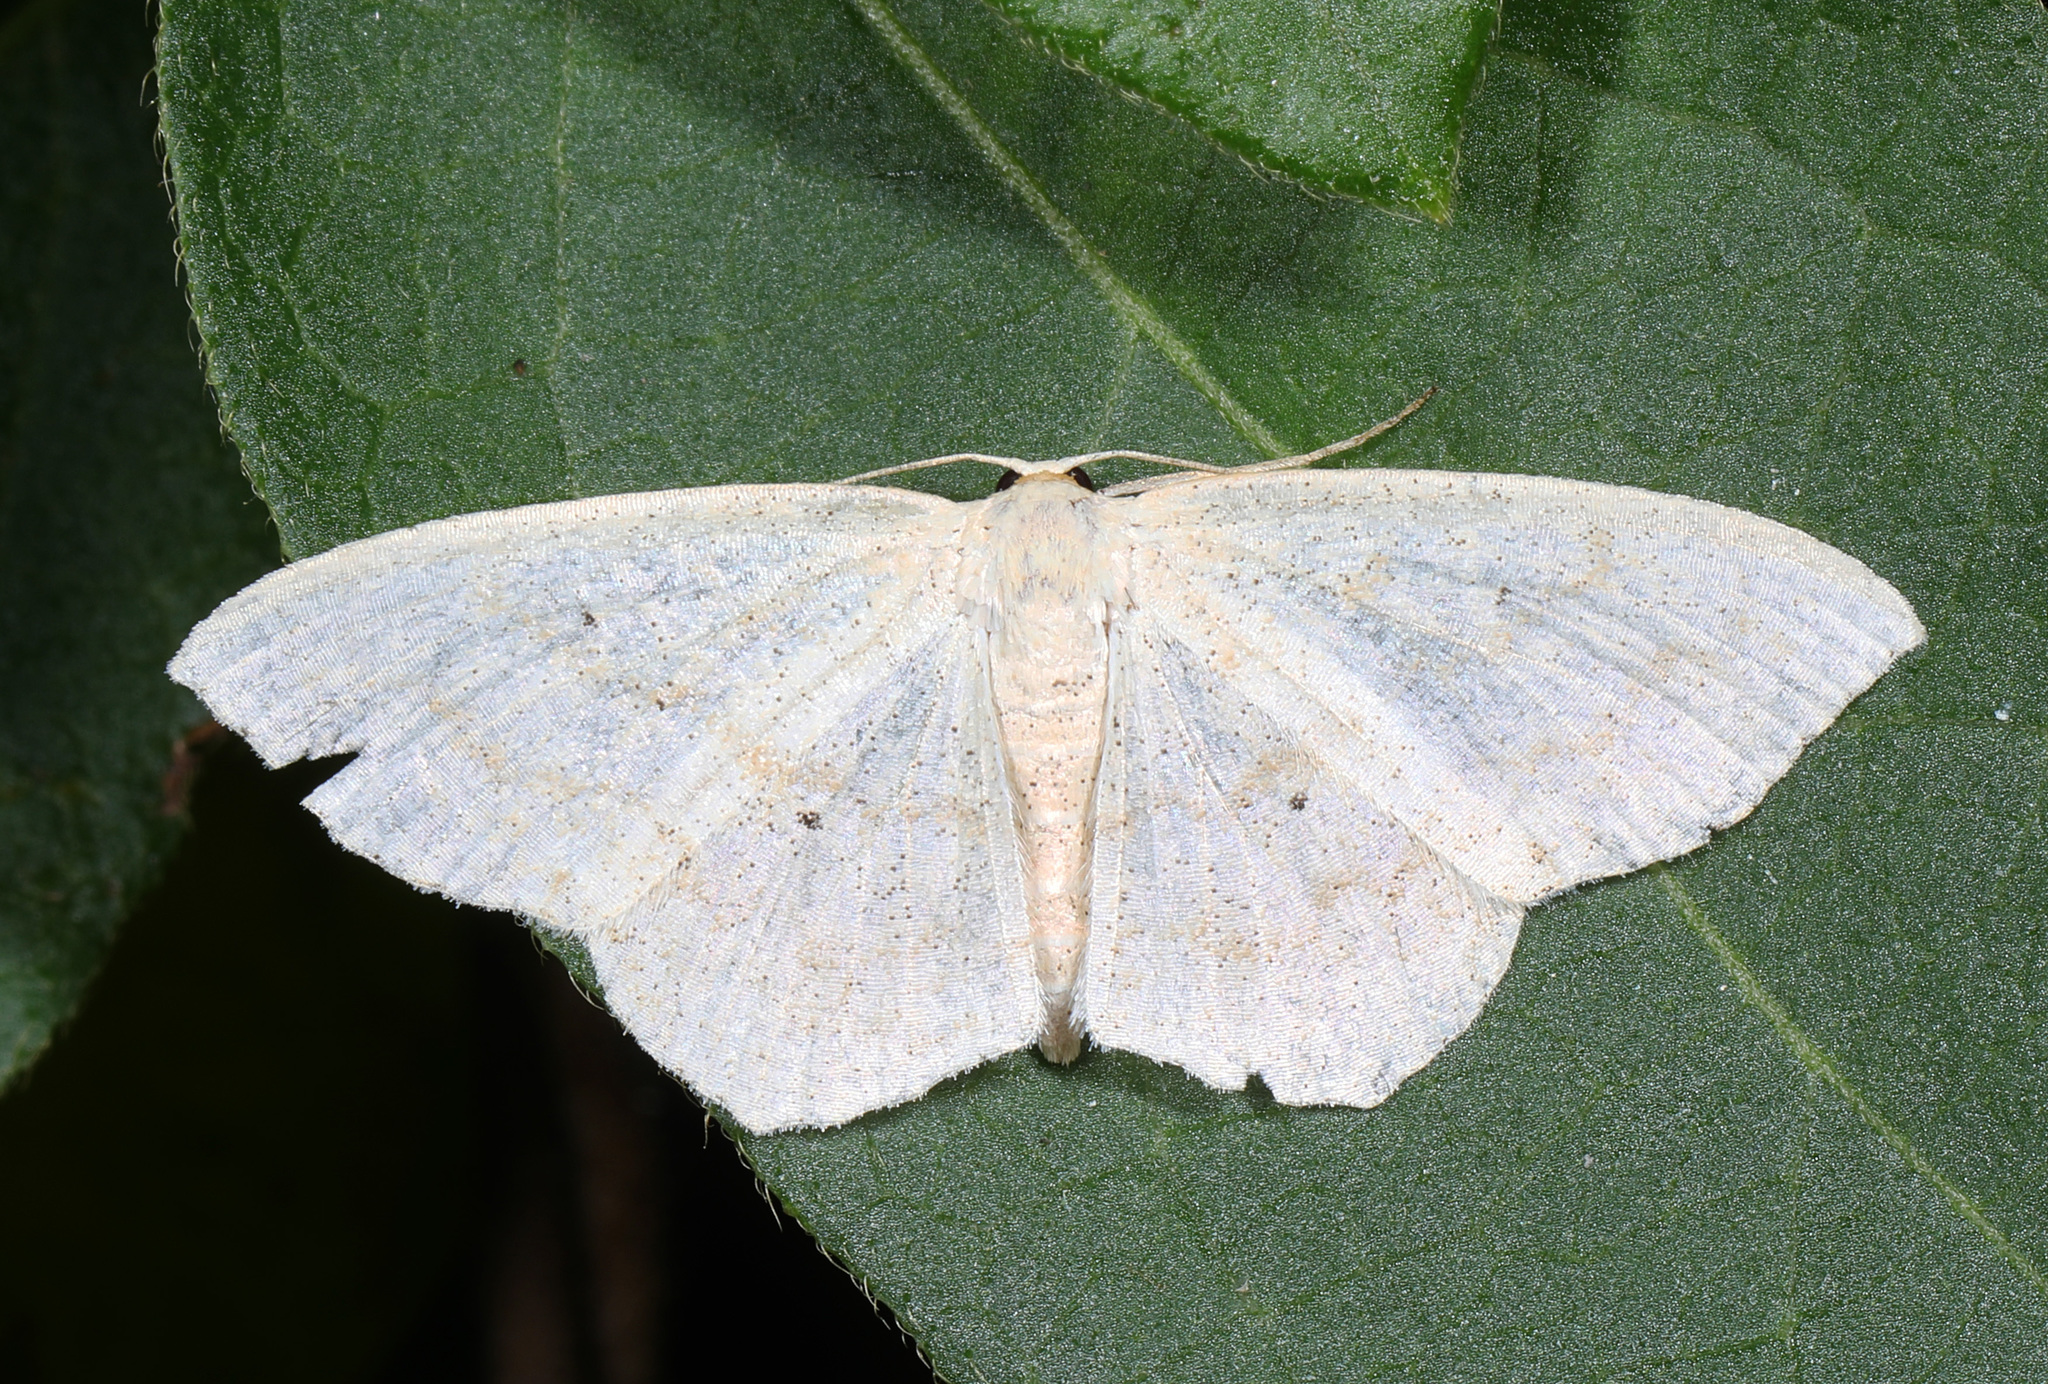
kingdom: Animalia
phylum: Arthropoda
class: Insecta
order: Lepidoptera
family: Geometridae
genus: Scopula
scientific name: Scopula limboundata
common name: Large lace border
